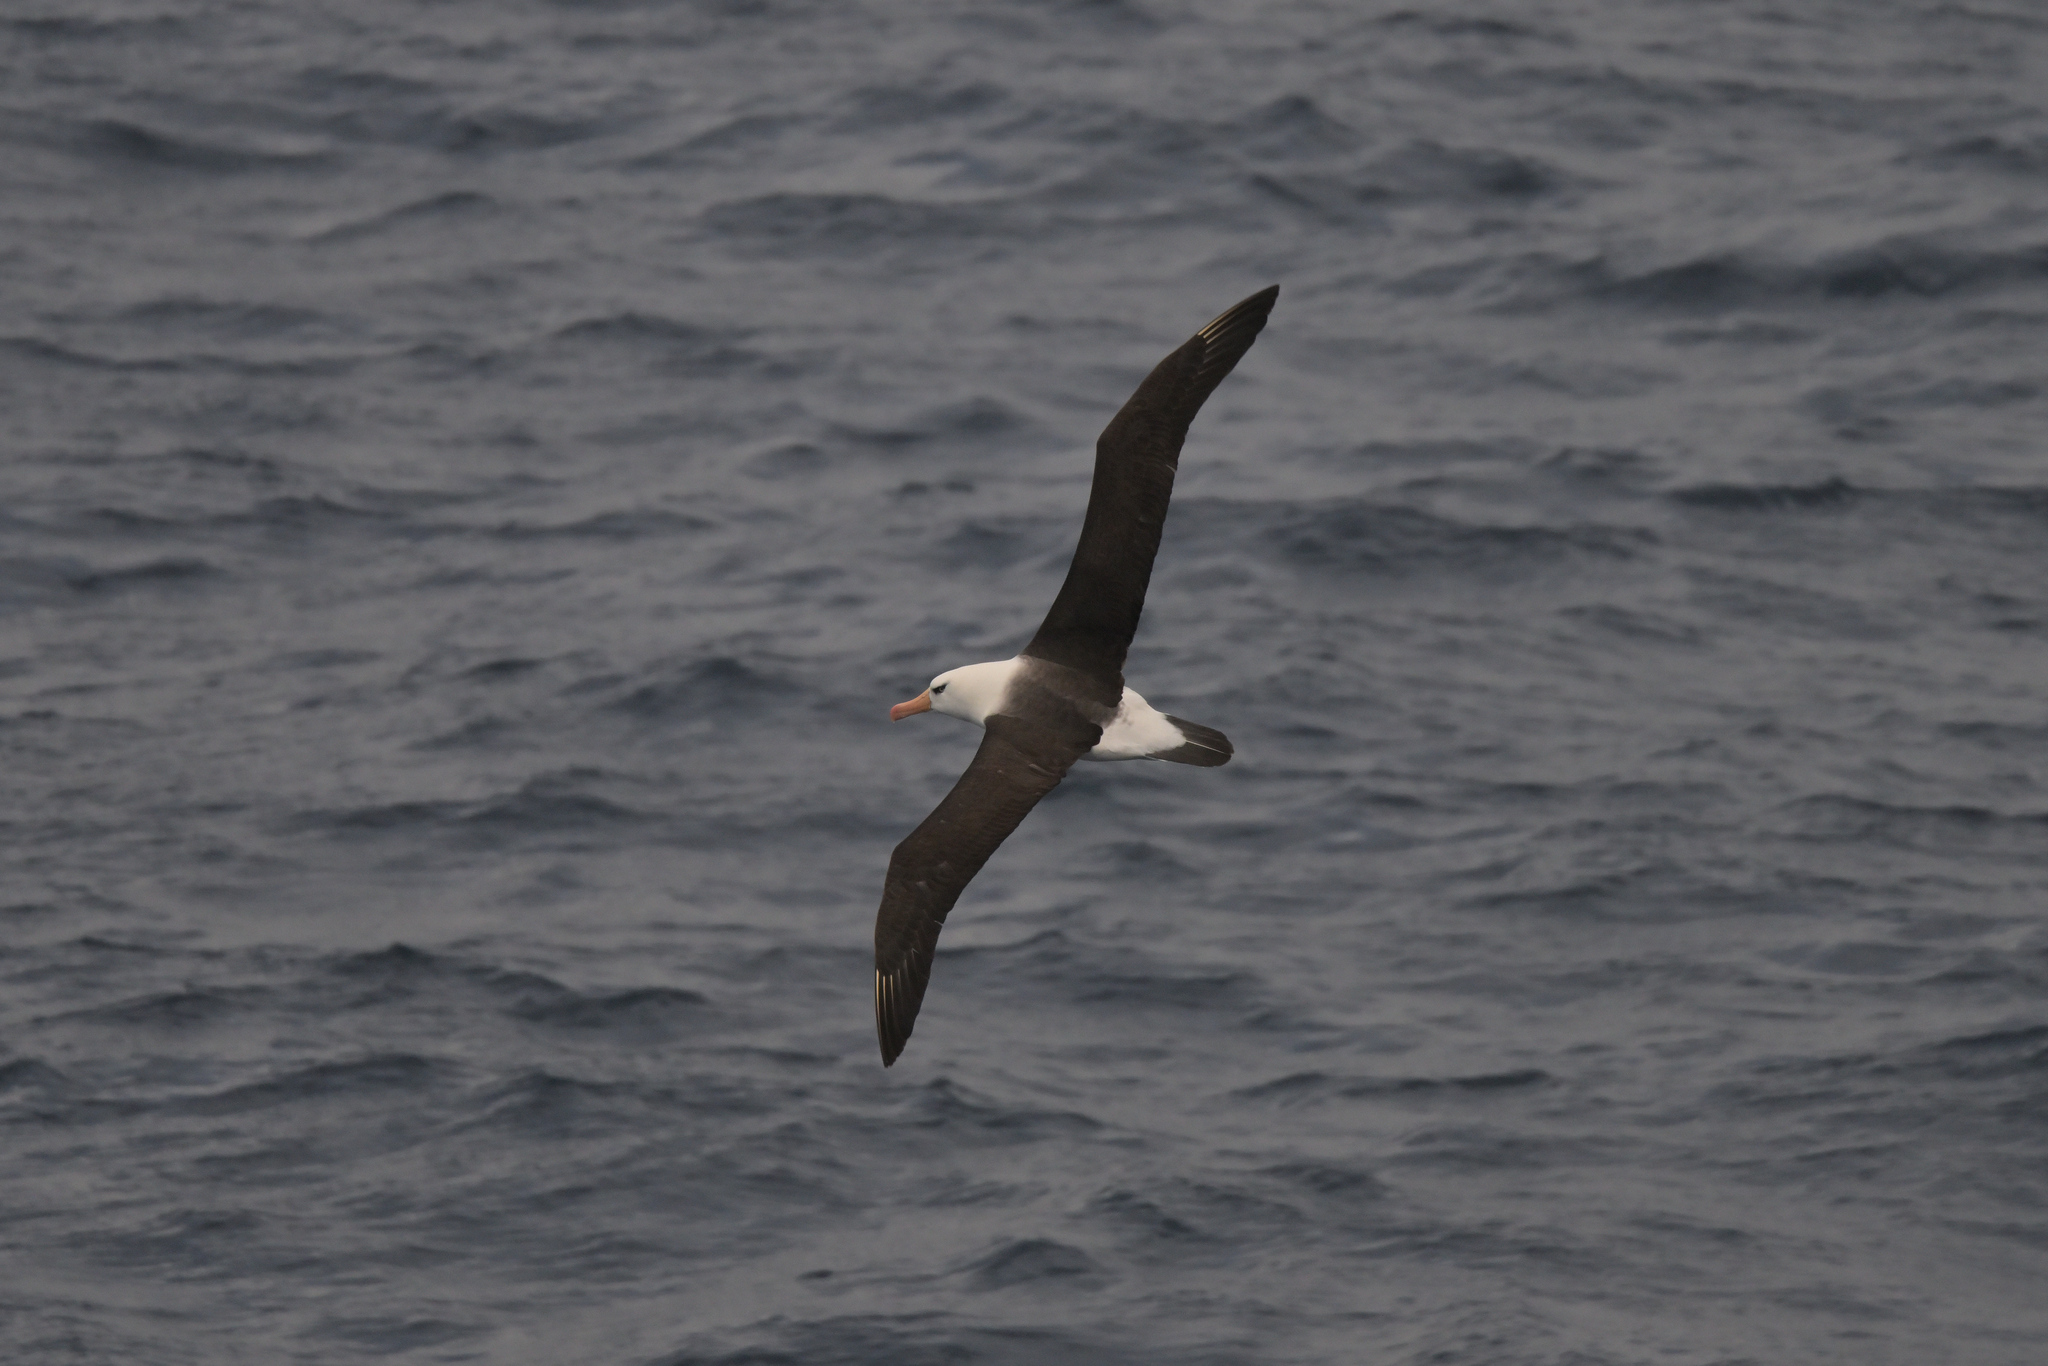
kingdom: Animalia
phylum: Chordata
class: Aves
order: Procellariiformes
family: Diomedeidae
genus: Thalassarche
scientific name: Thalassarche impavida
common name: Campbell albatross
